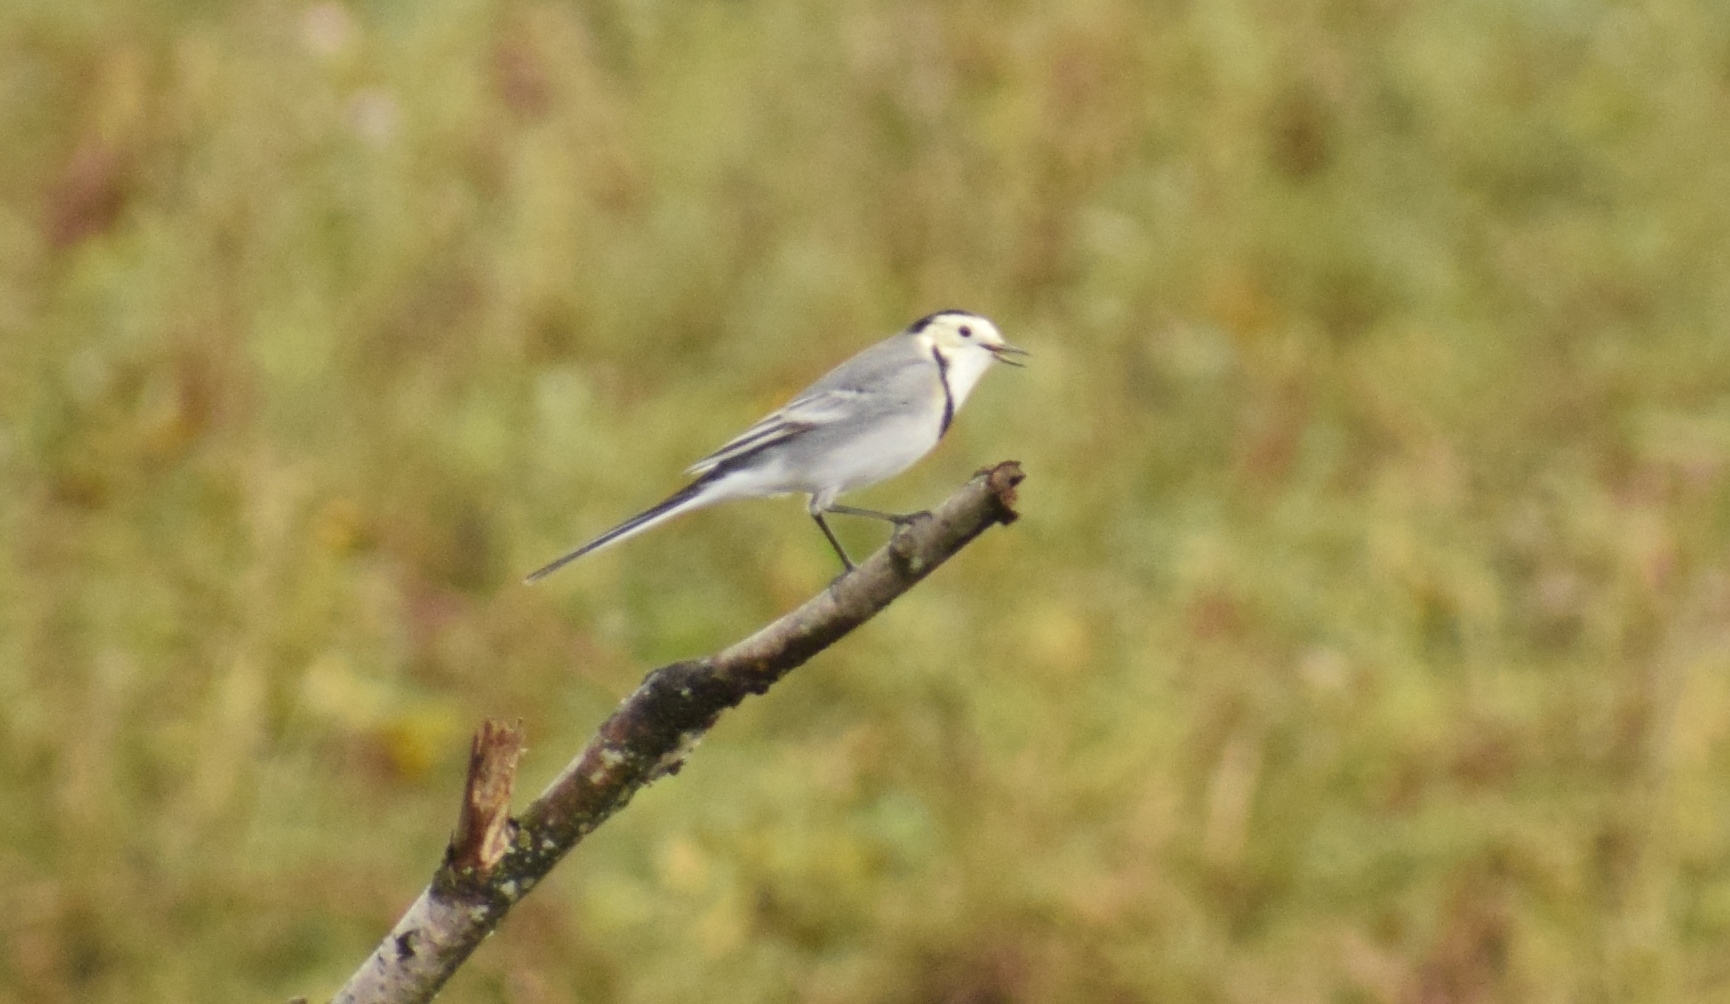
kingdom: Animalia
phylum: Chordata
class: Aves
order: Passeriformes
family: Motacillidae
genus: Motacilla
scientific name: Motacilla alba
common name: White wagtail
